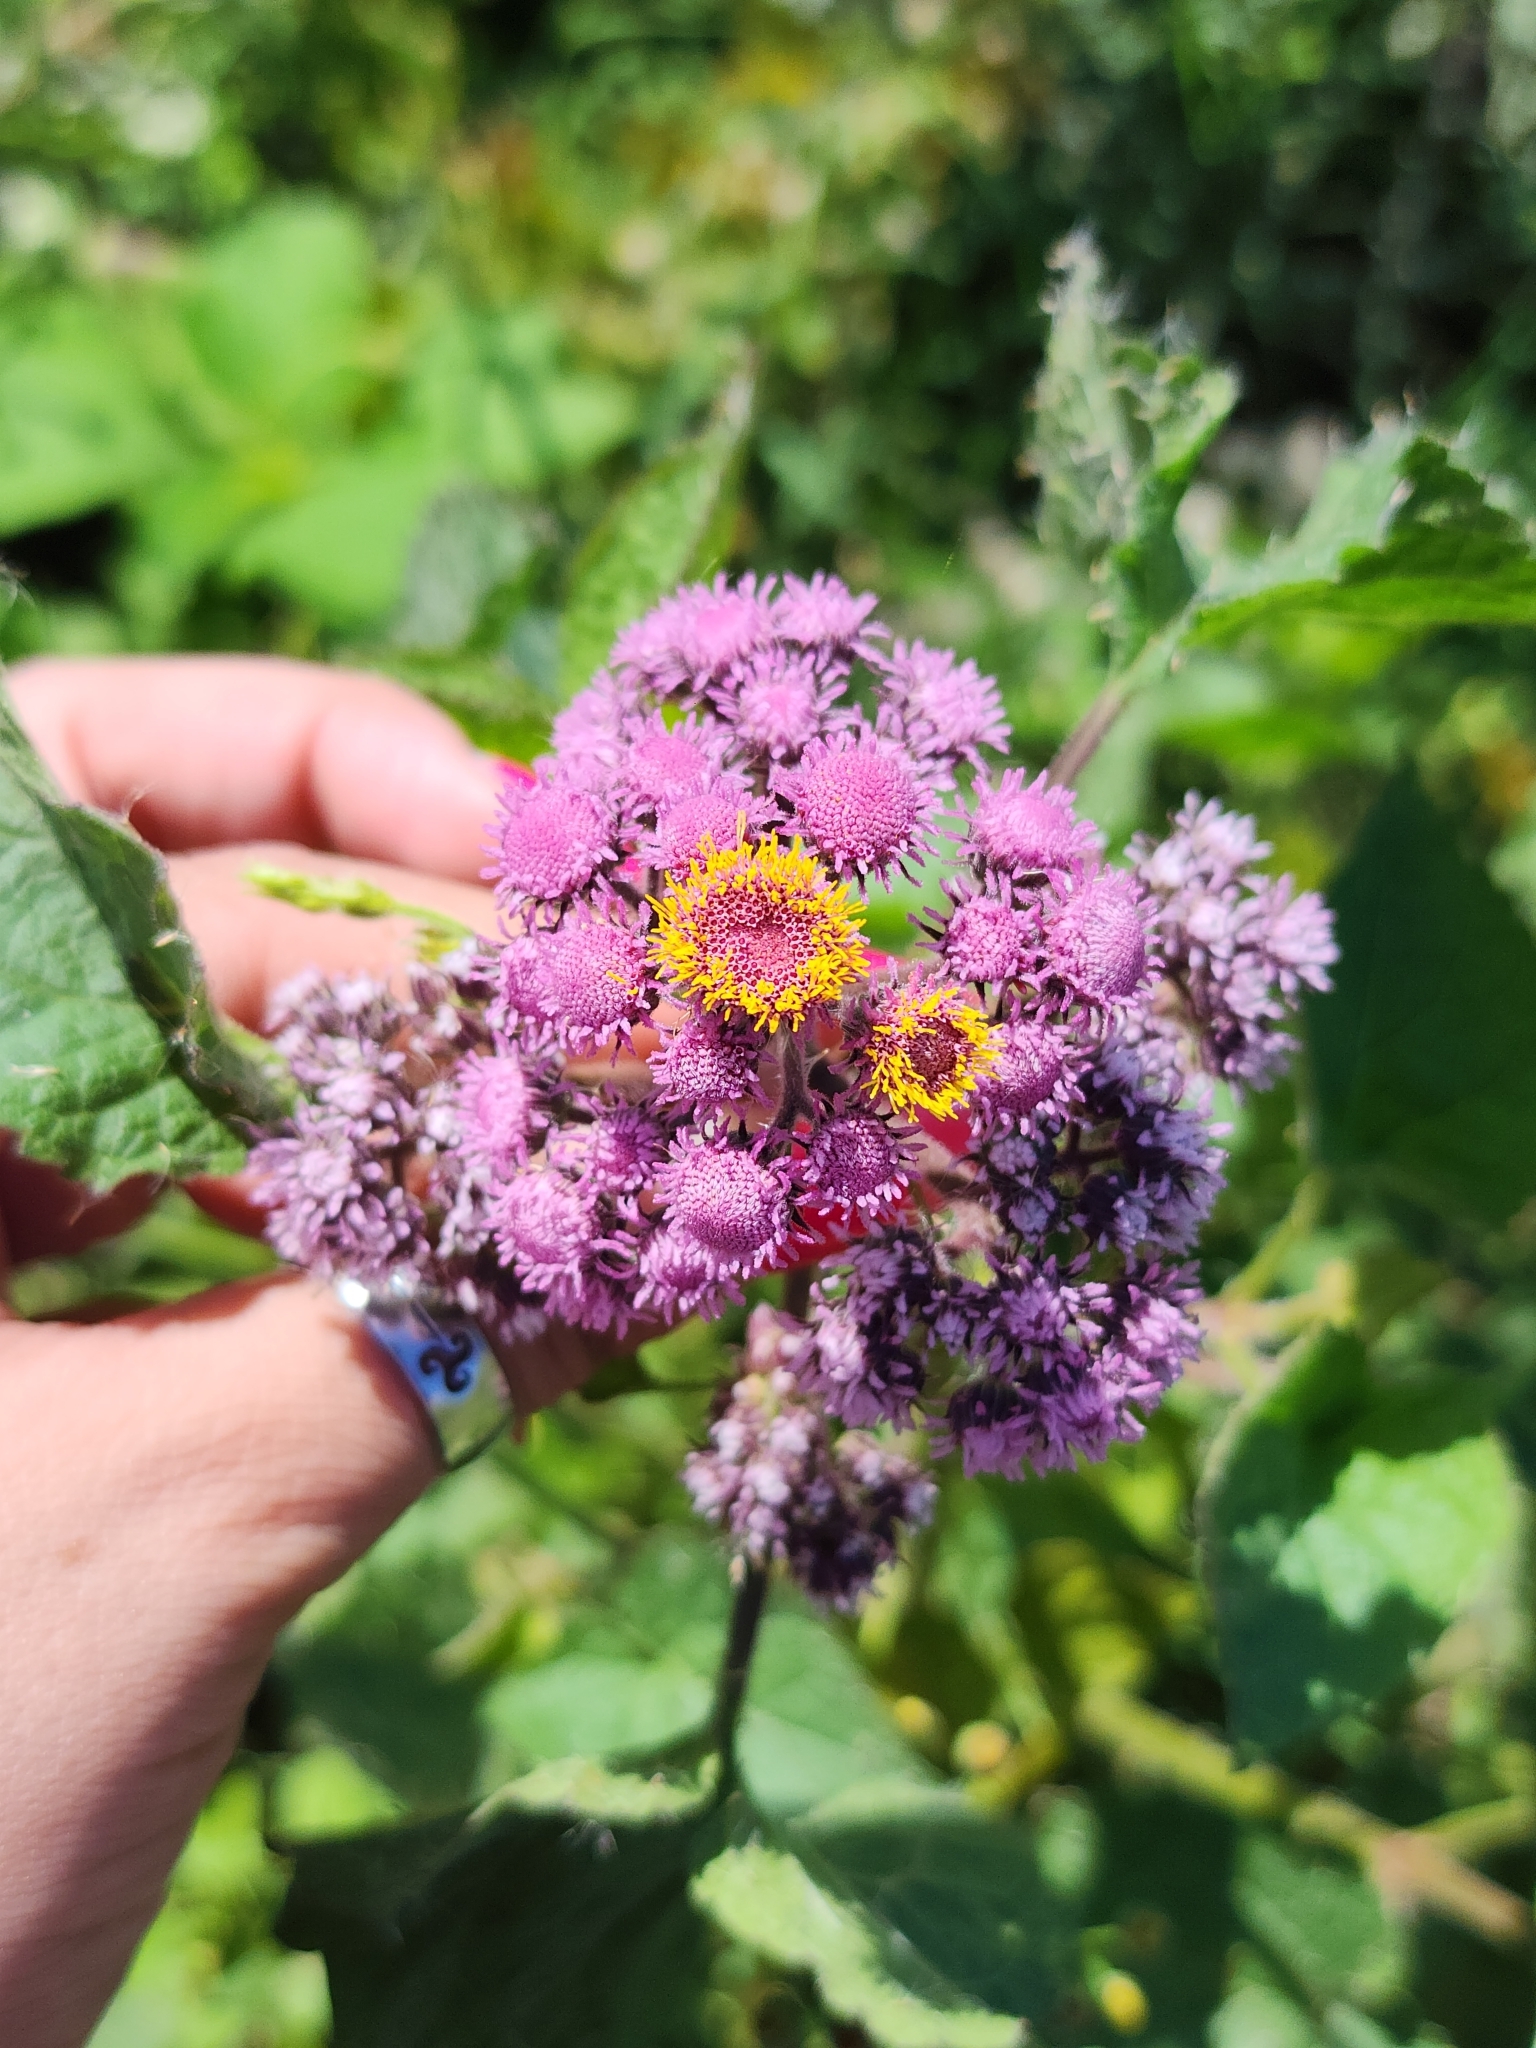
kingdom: Plantae
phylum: Tracheophyta
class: Magnoliopsida
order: Asterales
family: Asteraceae
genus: Urolepis
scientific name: Urolepis hecatantha
